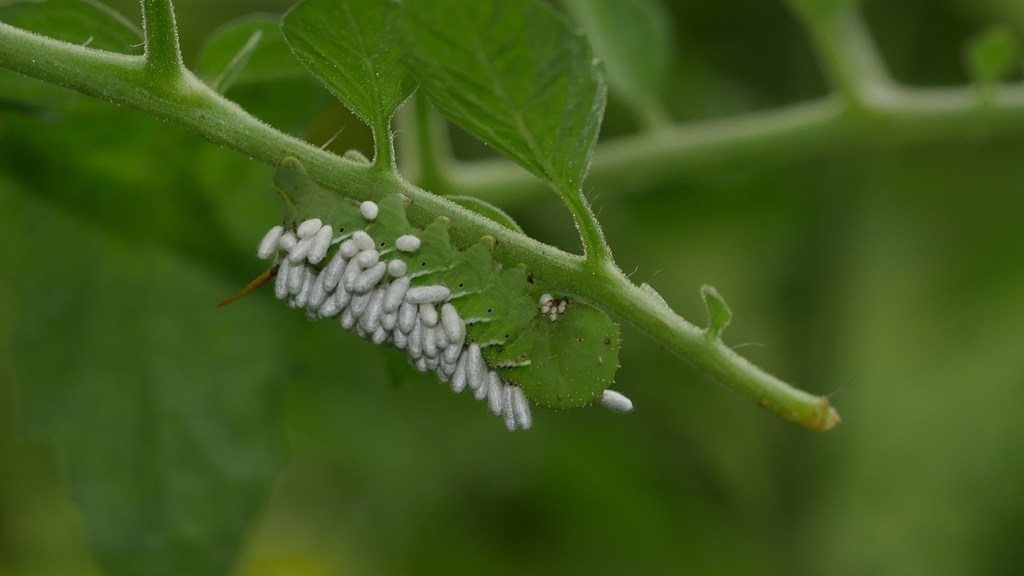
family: Polydnaviriformidae
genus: Bracoviriform
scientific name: Bracoviriform congregatae
